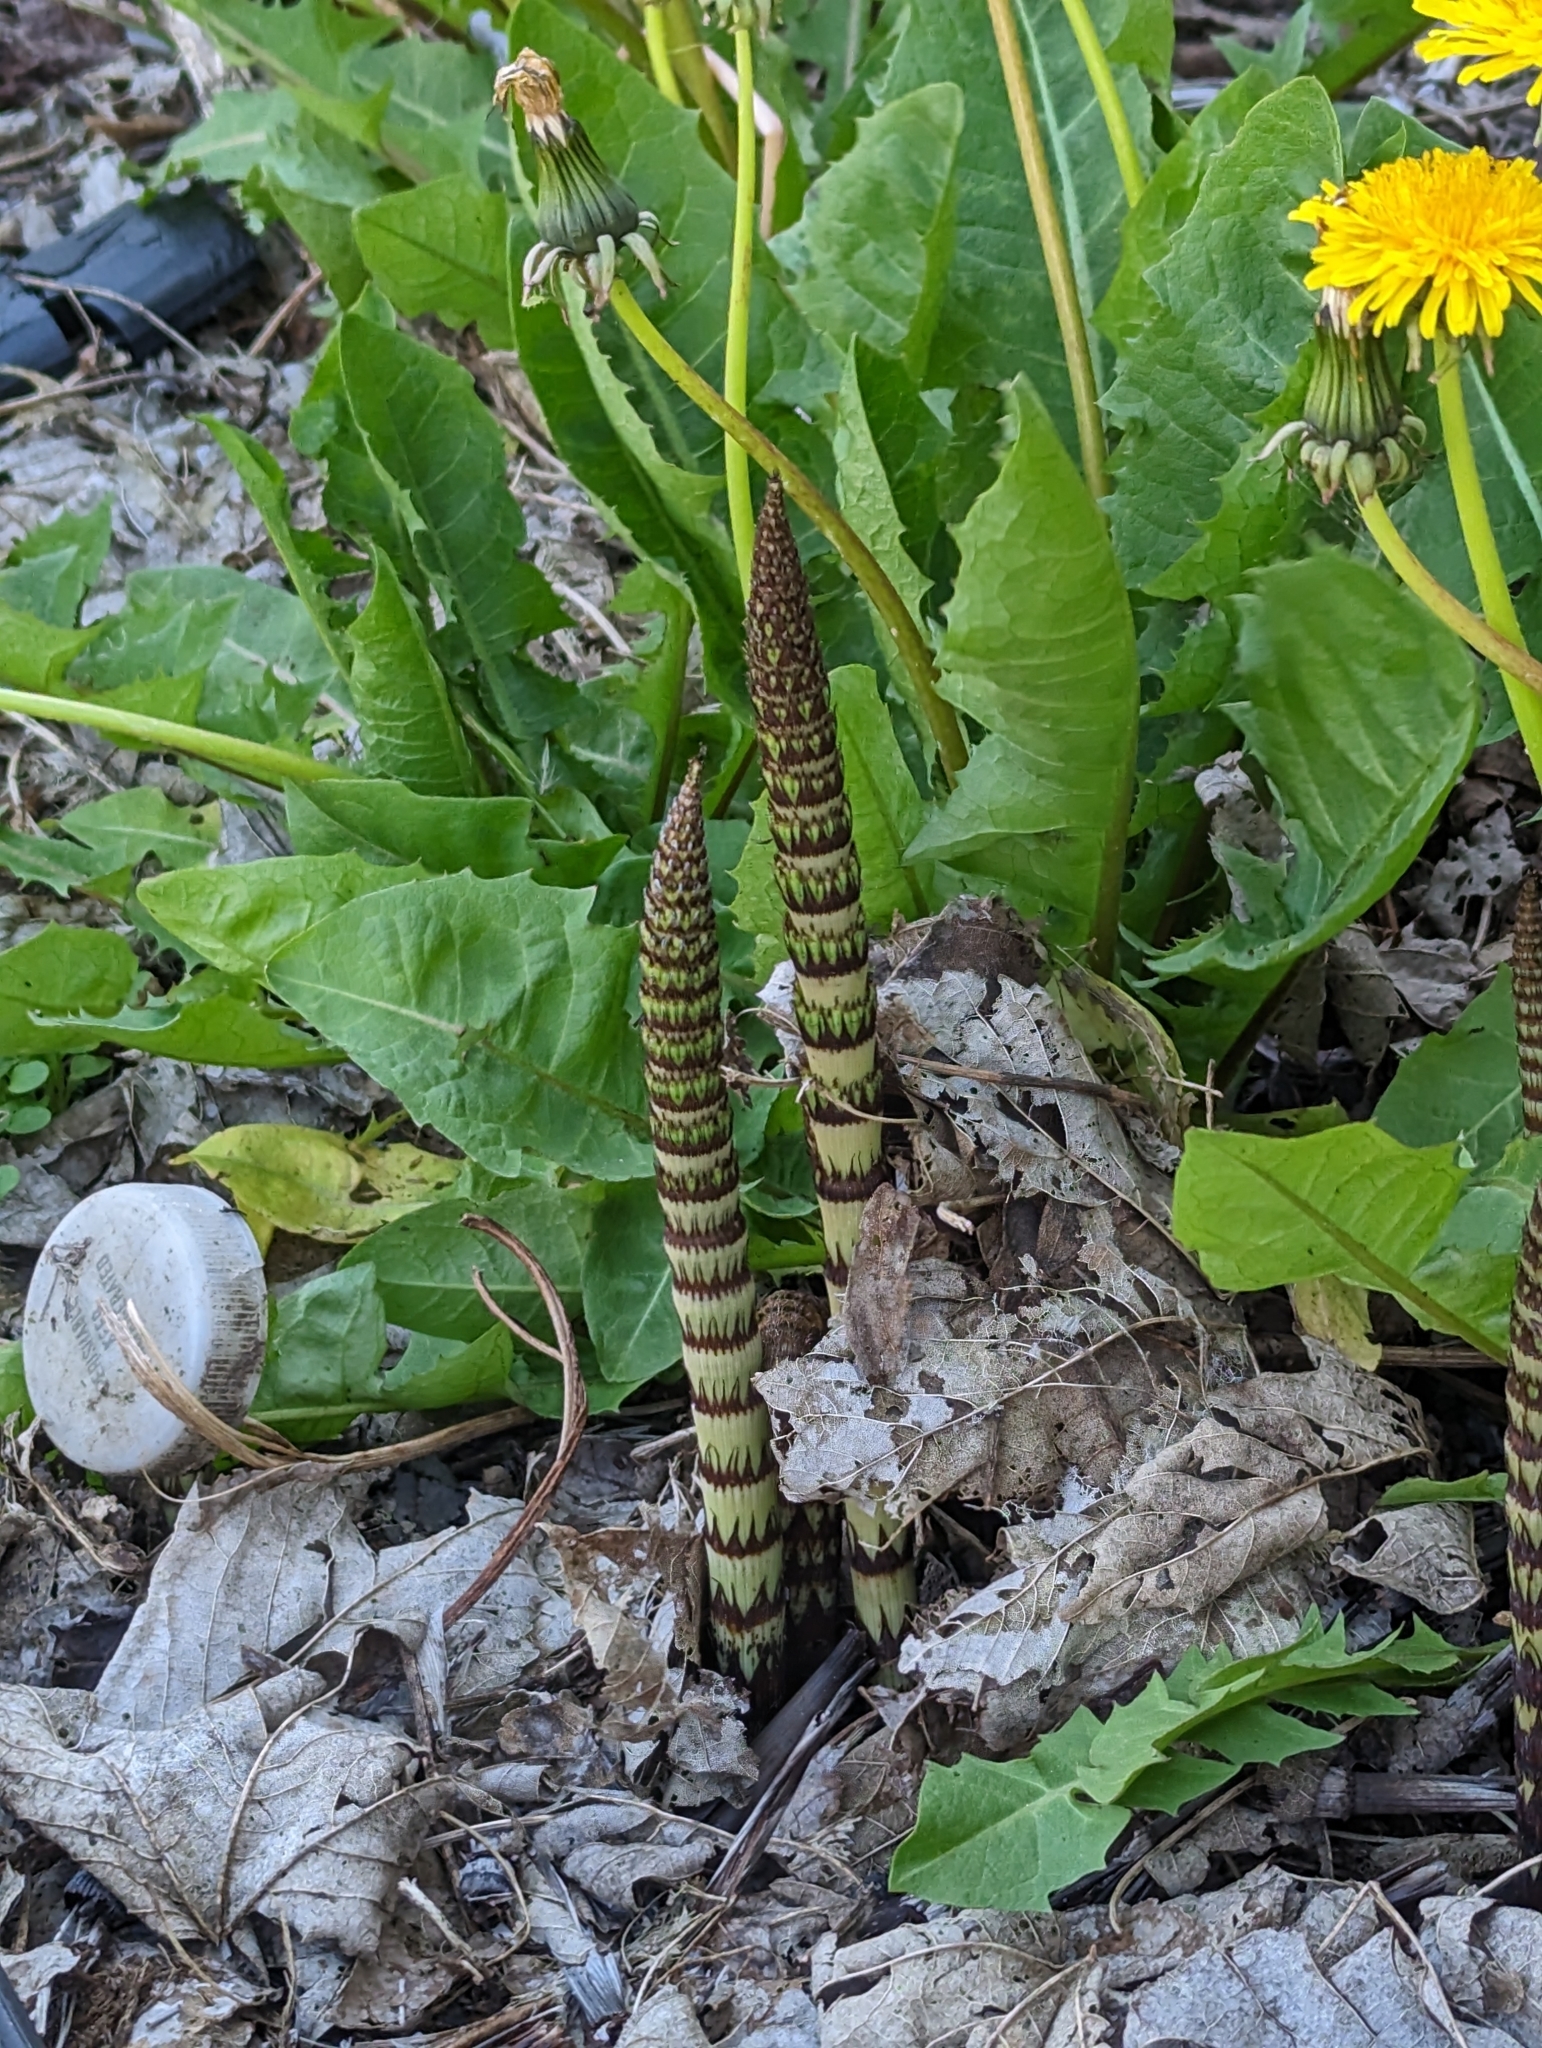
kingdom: Plantae
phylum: Tracheophyta
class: Polypodiopsida
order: Equisetales
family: Equisetaceae
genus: Equisetum
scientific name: Equisetum braunii
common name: Braun's horsetail
